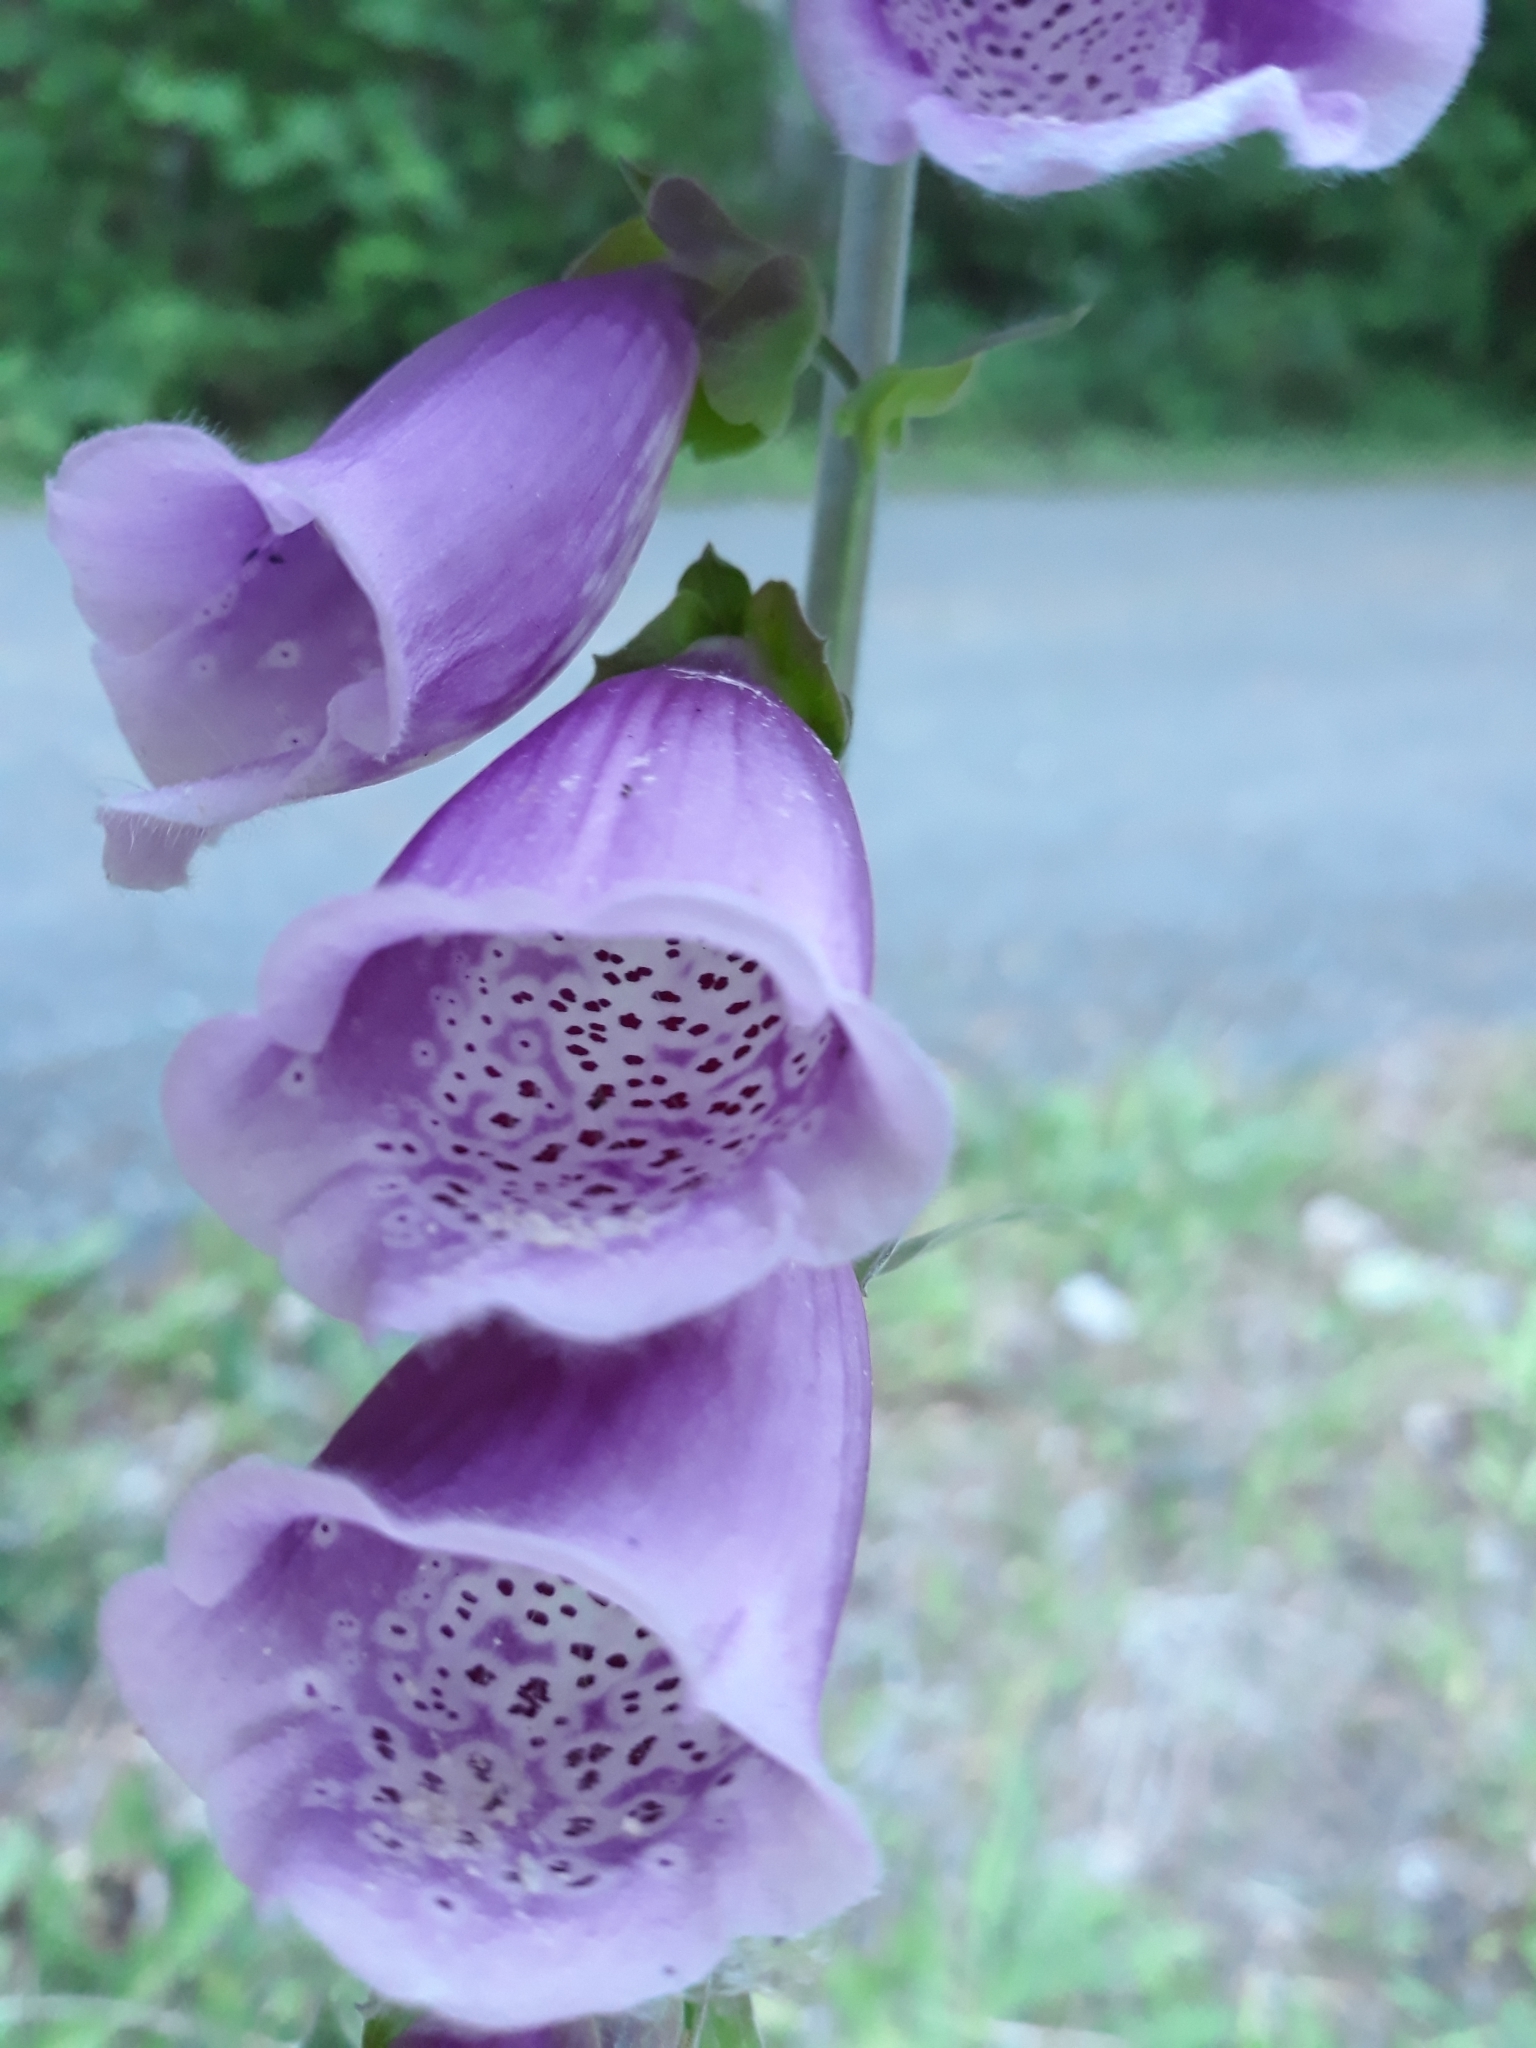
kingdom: Plantae
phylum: Tracheophyta
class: Magnoliopsida
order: Lamiales
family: Plantaginaceae
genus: Digitalis
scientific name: Digitalis purpurea
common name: Foxglove
